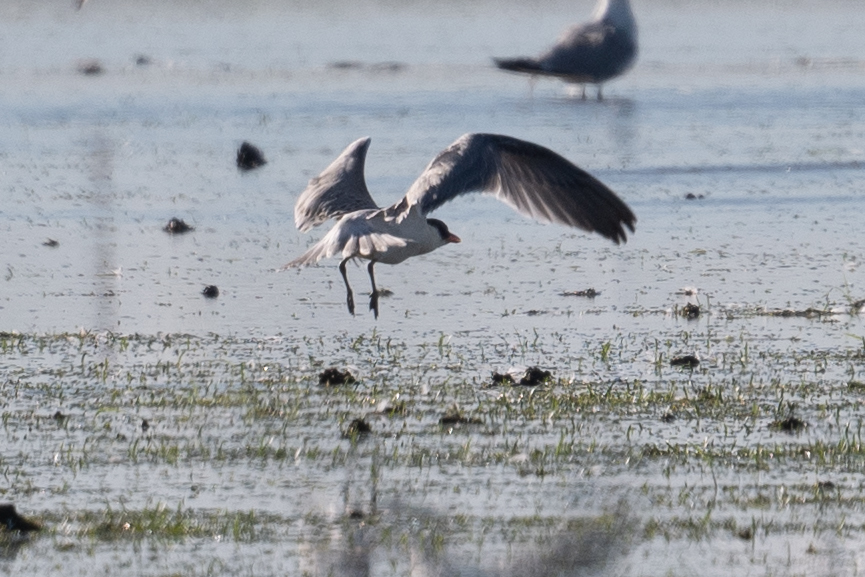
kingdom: Animalia
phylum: Chordata
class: Aves
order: Charadriiformes
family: Laridae
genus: Hydroprogne
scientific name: Hydroprogne caspia
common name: Caspian tern
